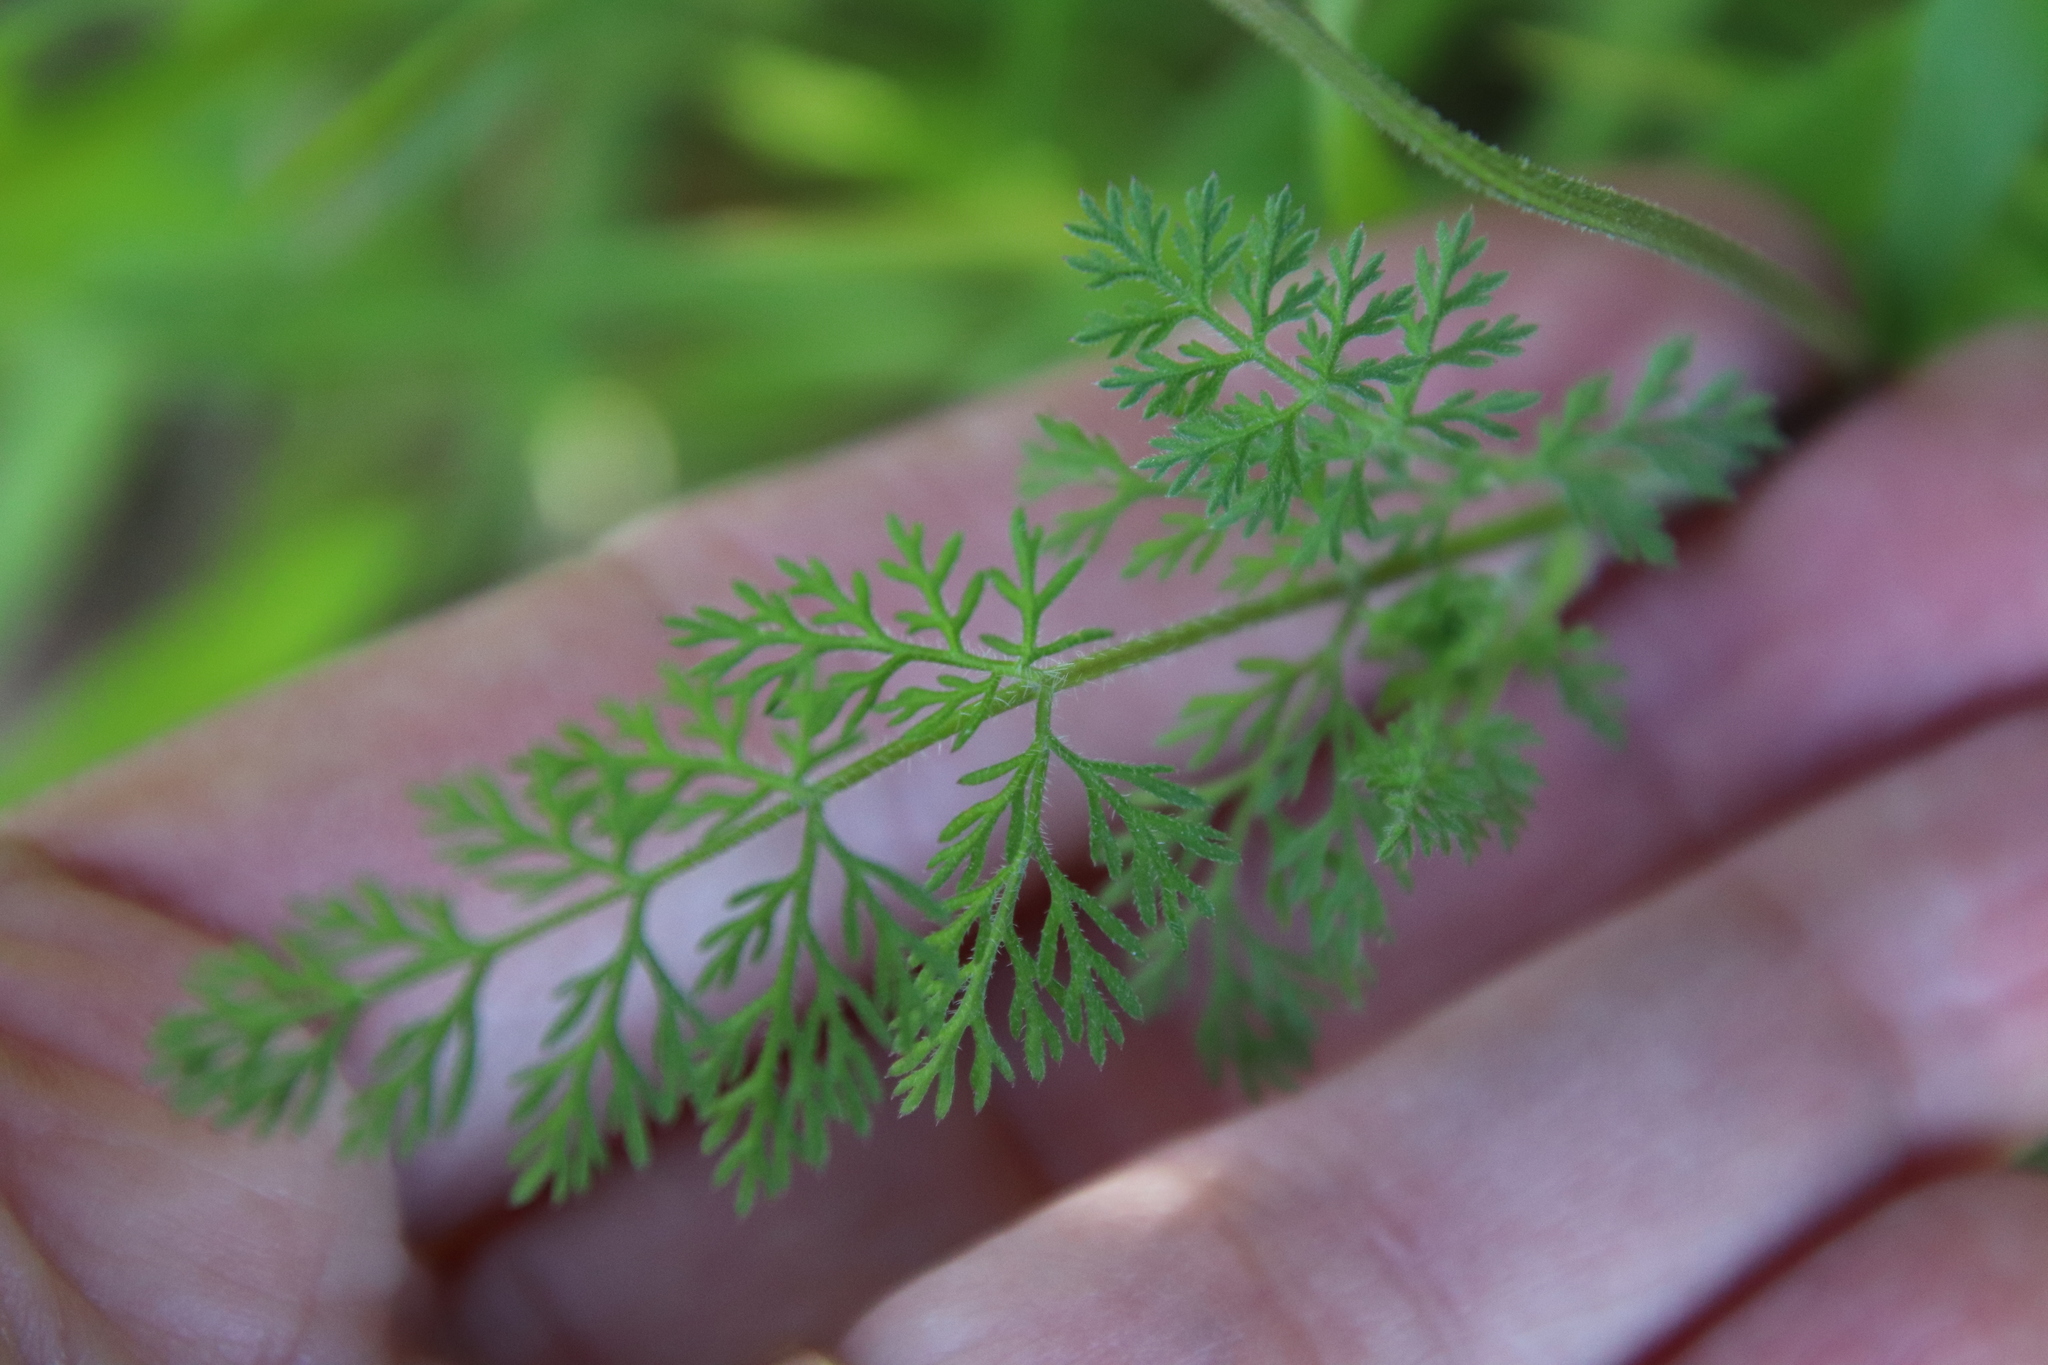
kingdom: Plantae
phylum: Tracheophyta
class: Magnoliopsida
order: Apiales
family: Apiaceae
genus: Daucus
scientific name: Daucus pusillus
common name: Southwest wild carrot
